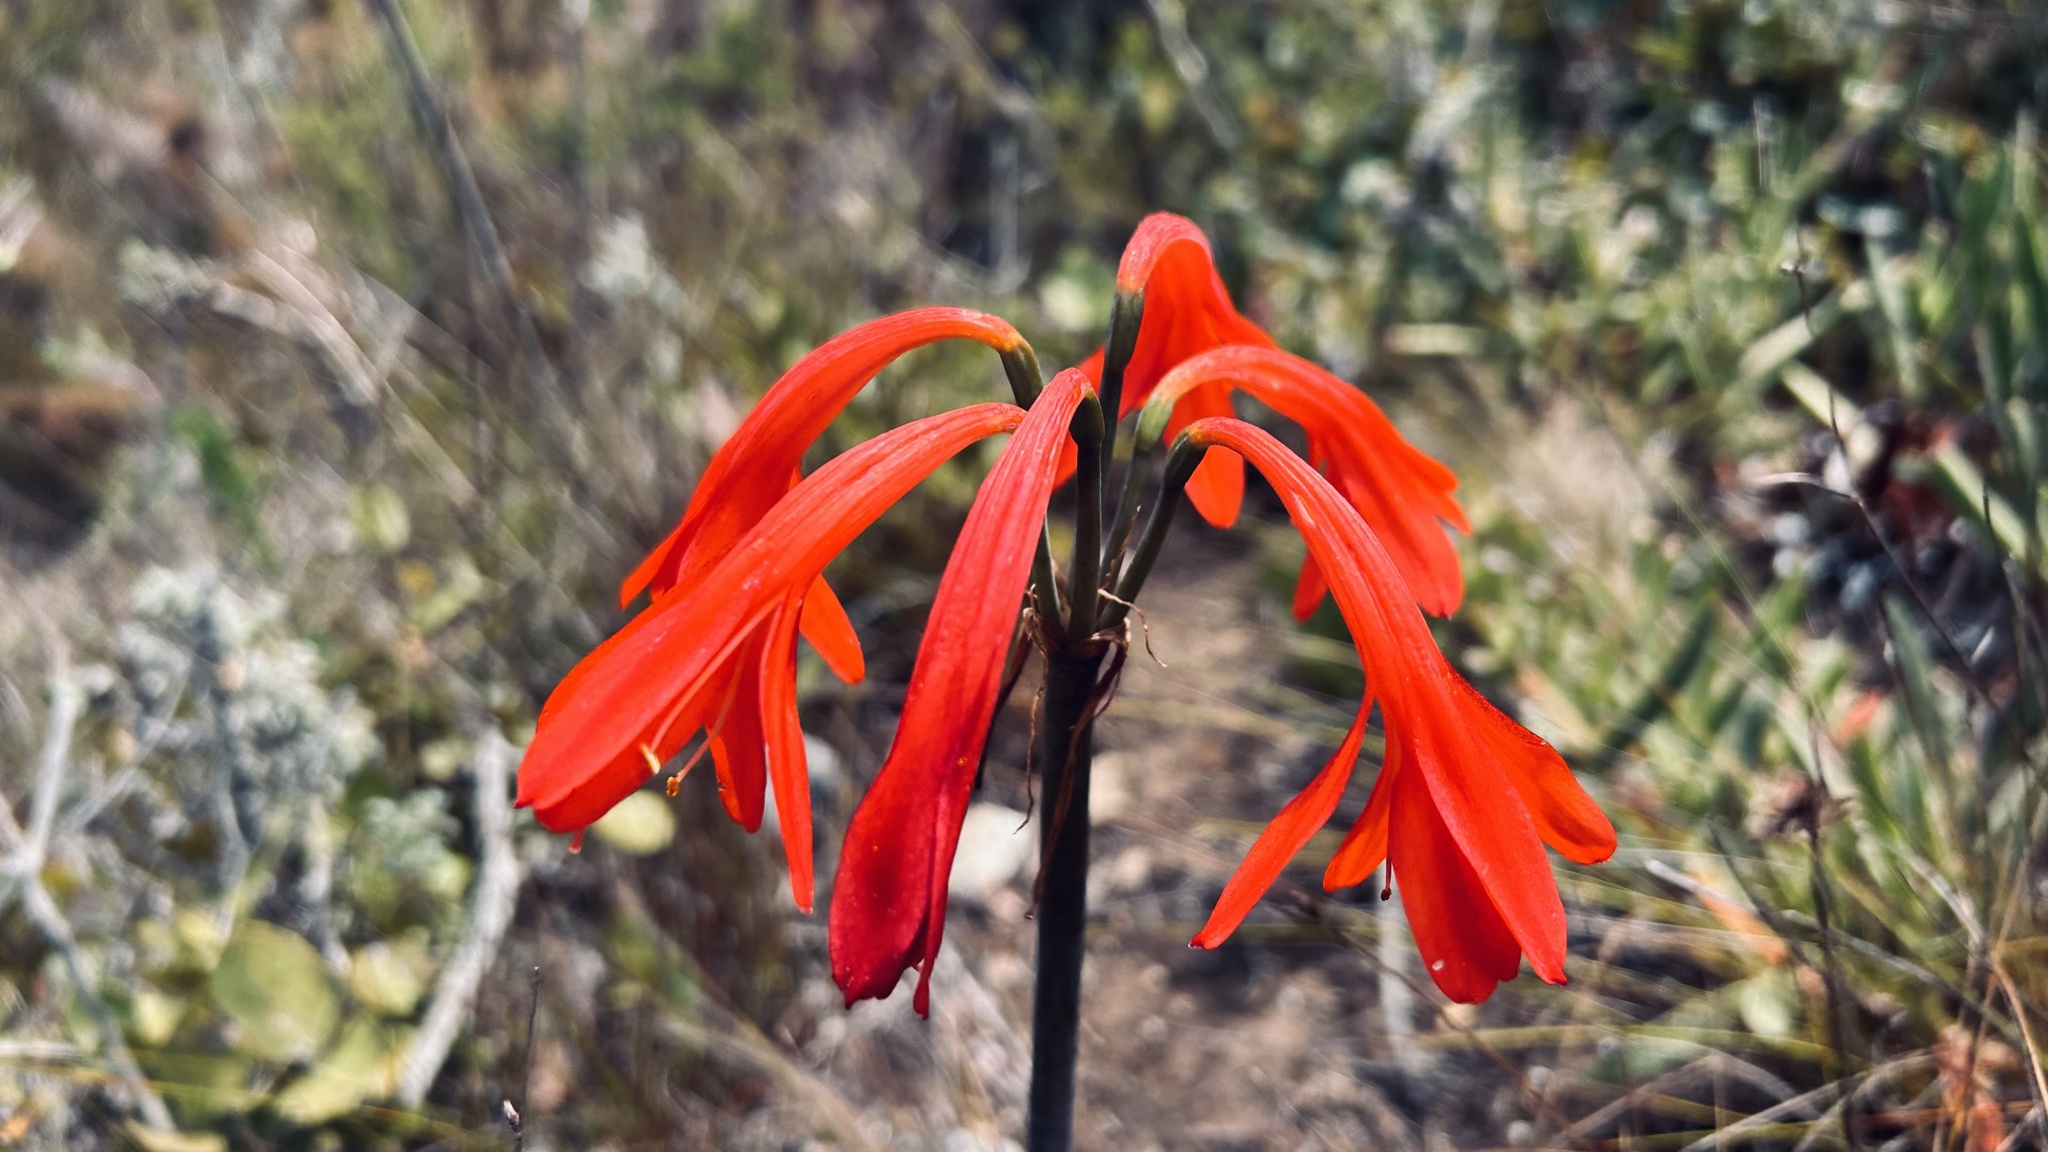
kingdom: Plantae
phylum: Tracheophyta
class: Liliopsida
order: Asparagales
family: Amaryllidaceae
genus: Cyrtanthus
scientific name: Cyrtanthus fergusoniae
